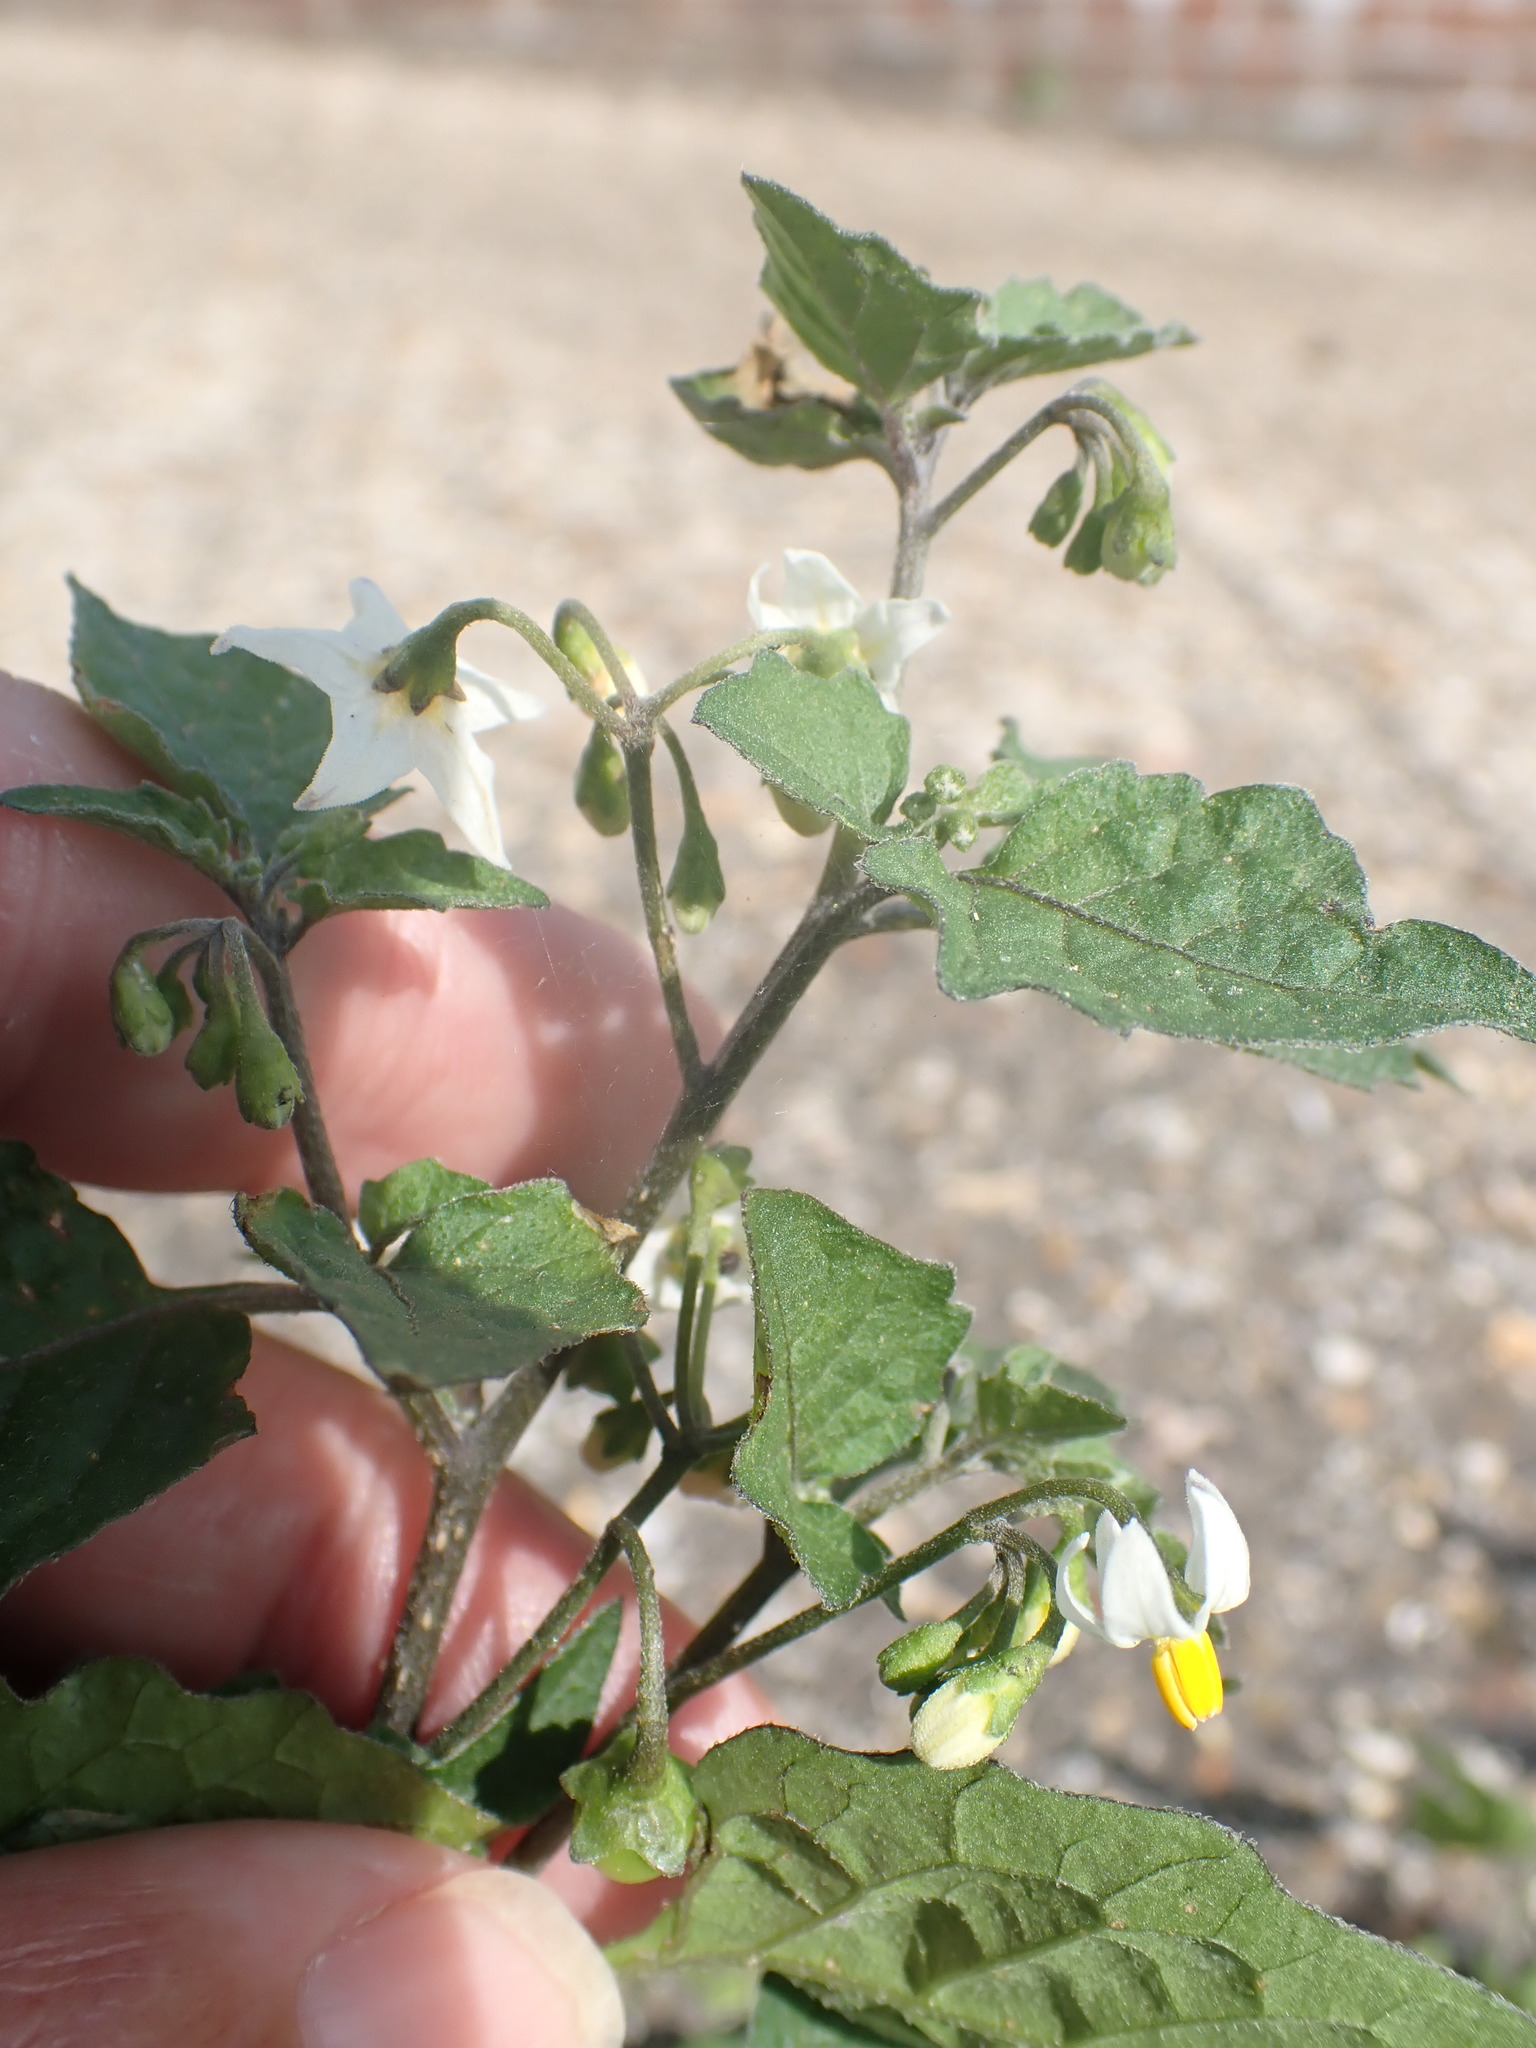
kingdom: Plantae
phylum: Tracheophyta
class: Magnoliopsida
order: Solanales
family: Solanaceae
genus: Solanum
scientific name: Solanum nigrum
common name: Black nightshade
